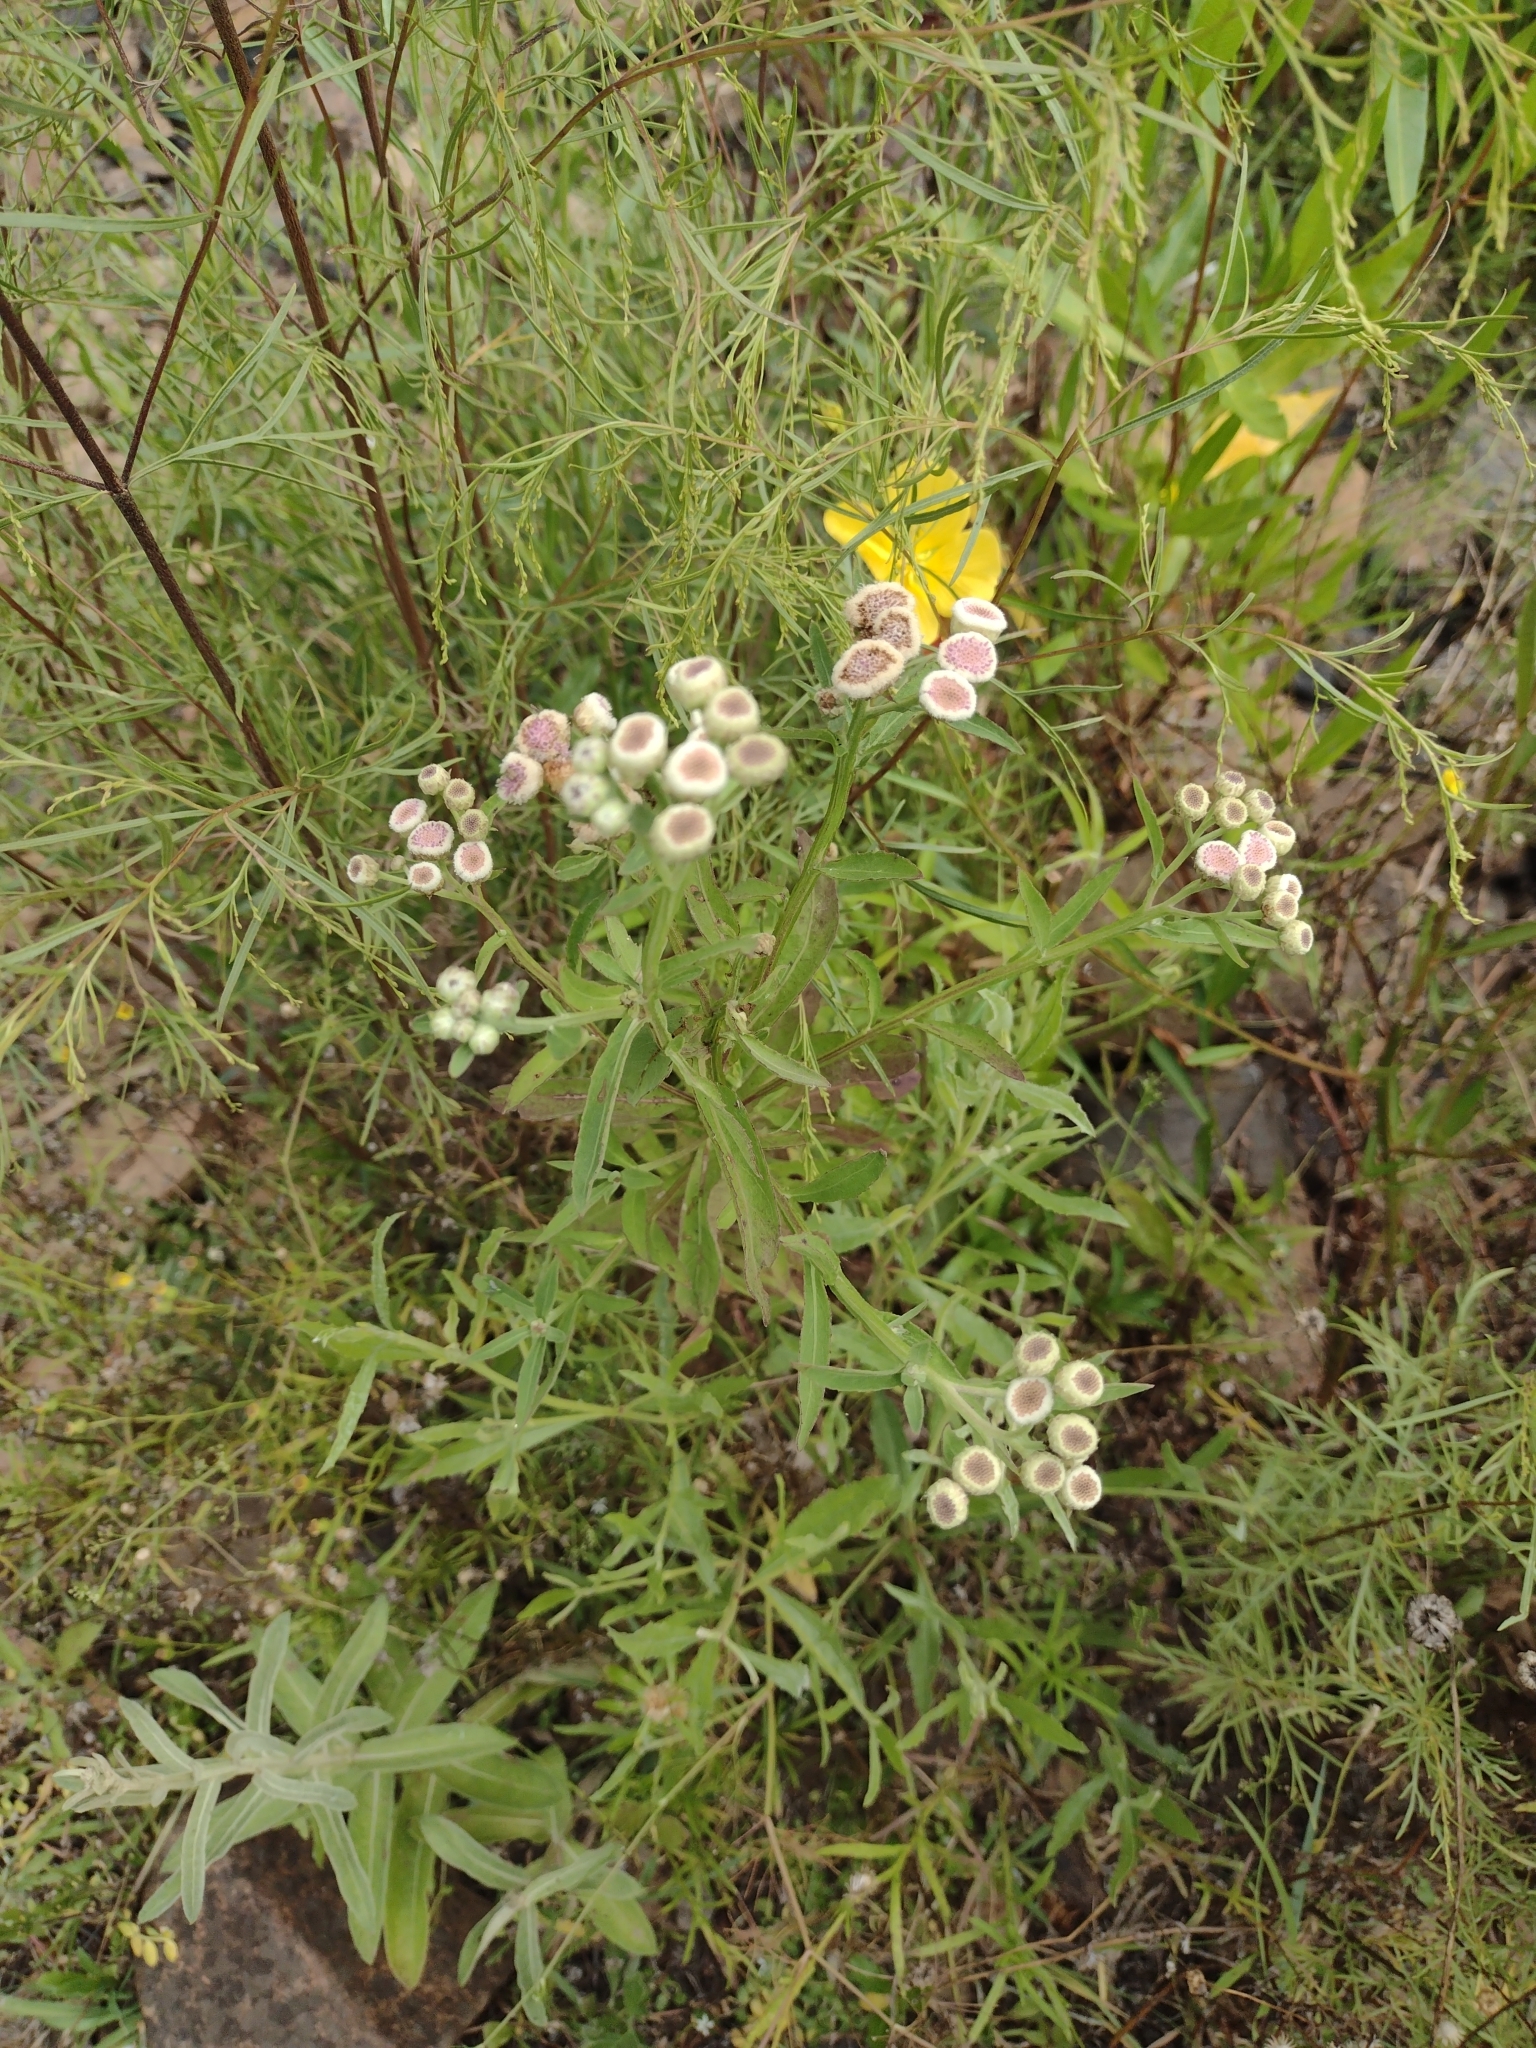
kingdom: Plantae
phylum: Tracheophyta
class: Magnoliopsida
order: Asterales
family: Asteraceae
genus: Pluchea
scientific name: Pluchea sagittalis
